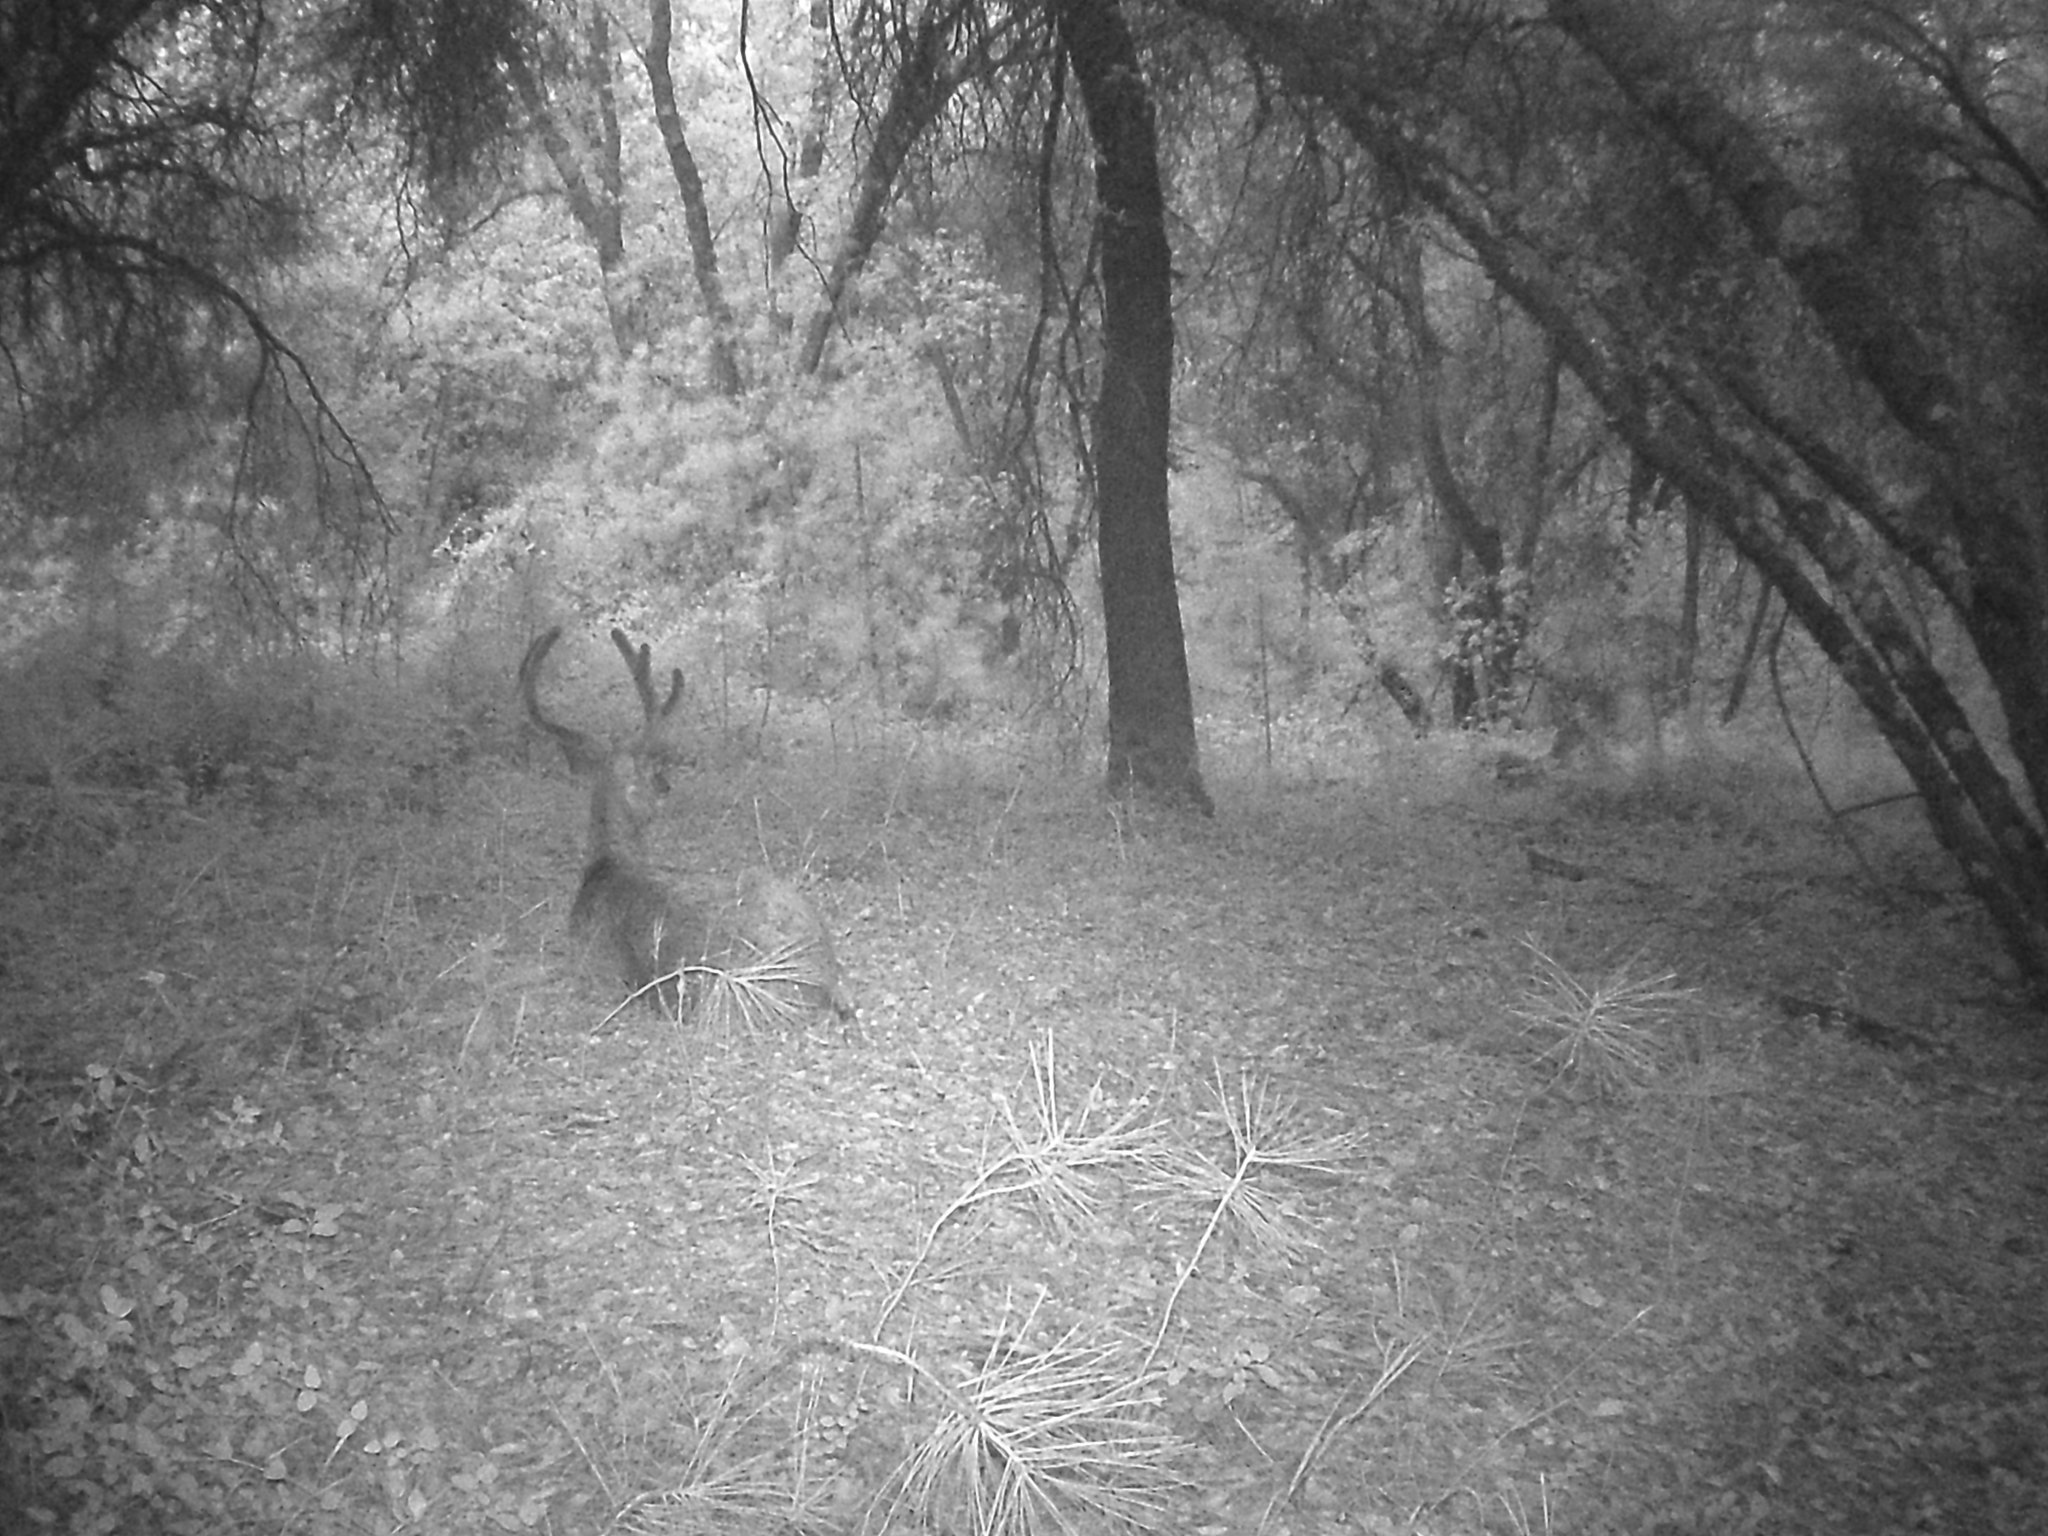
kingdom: Animalia
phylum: Chordata
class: Mammalia
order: Artiodactyla
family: Cervidae
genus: Odocoileus
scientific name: Odocoileus hemionus
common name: Mule deer
